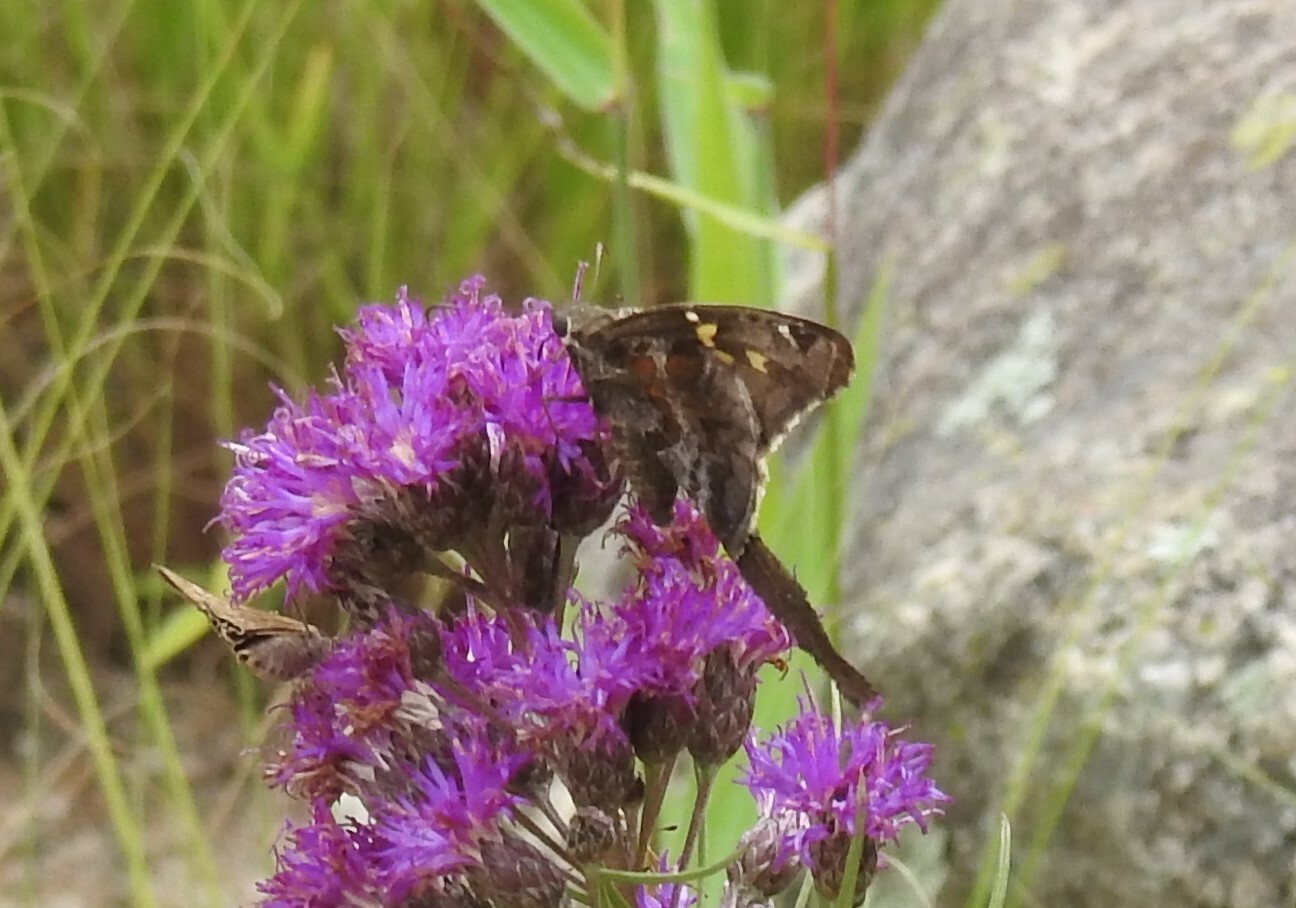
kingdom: Animalia
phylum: Arthropoda
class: Insecta
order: Lepidoptera
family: Hesperiidae
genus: Chioides
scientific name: Chioides catillus
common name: Silverbanded skipper
